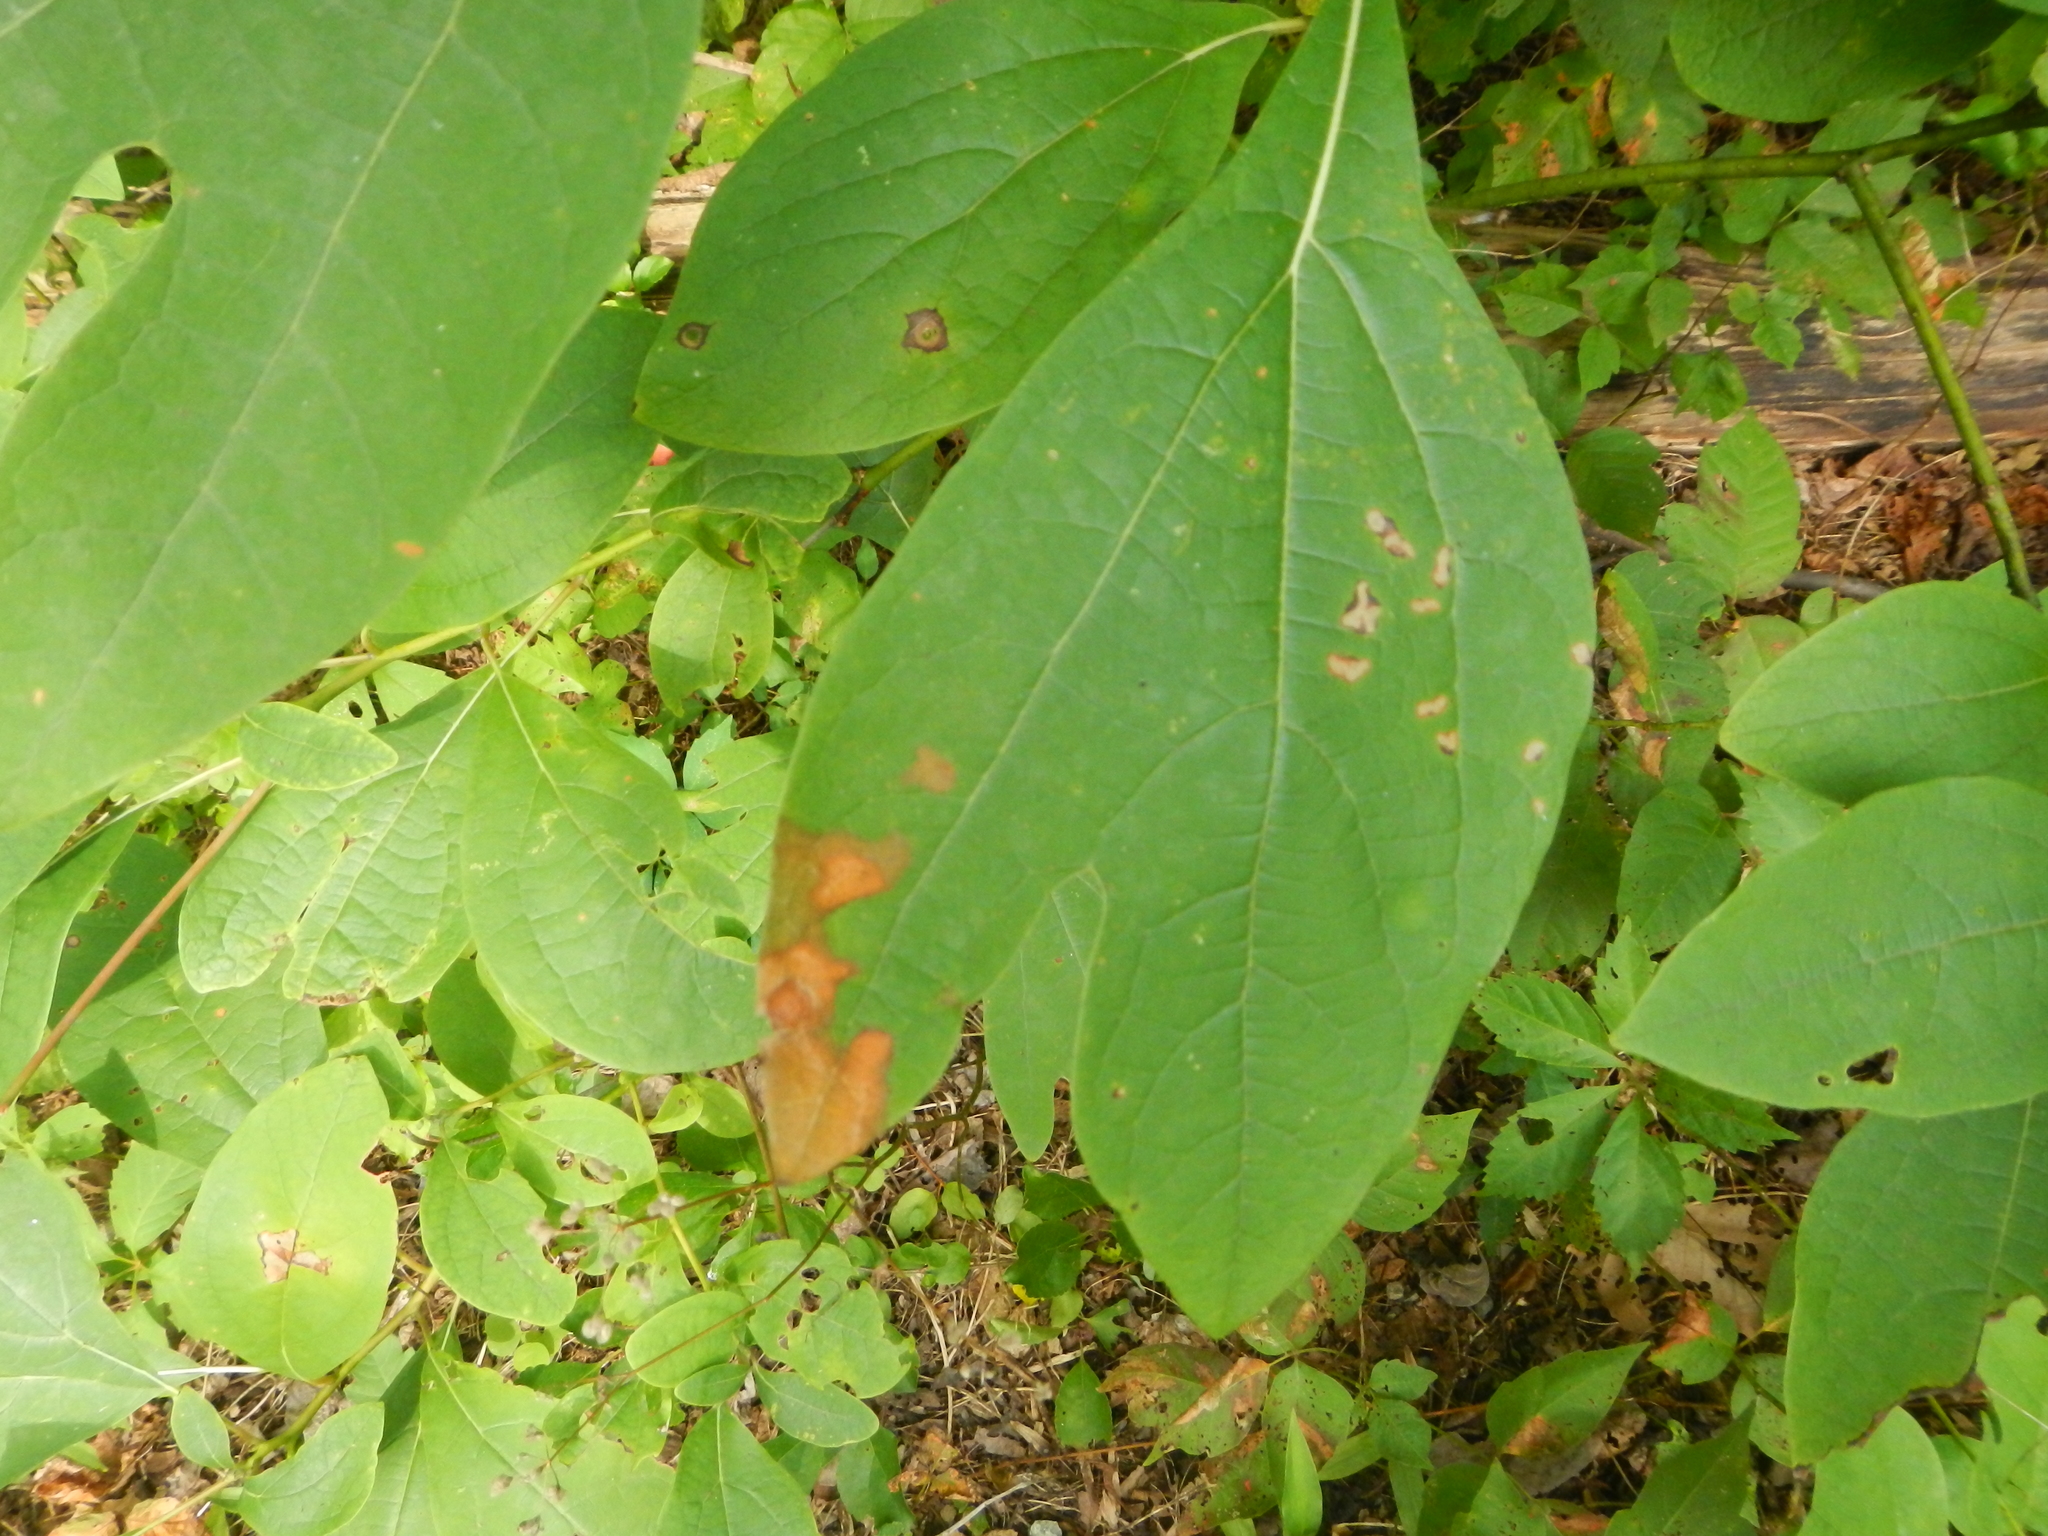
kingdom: Plantae
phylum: Tracheophyta
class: Magnoliopsida
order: Laurales
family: Lauraceae
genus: Sassafras
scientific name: Sassafras albidum
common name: Sassafras
